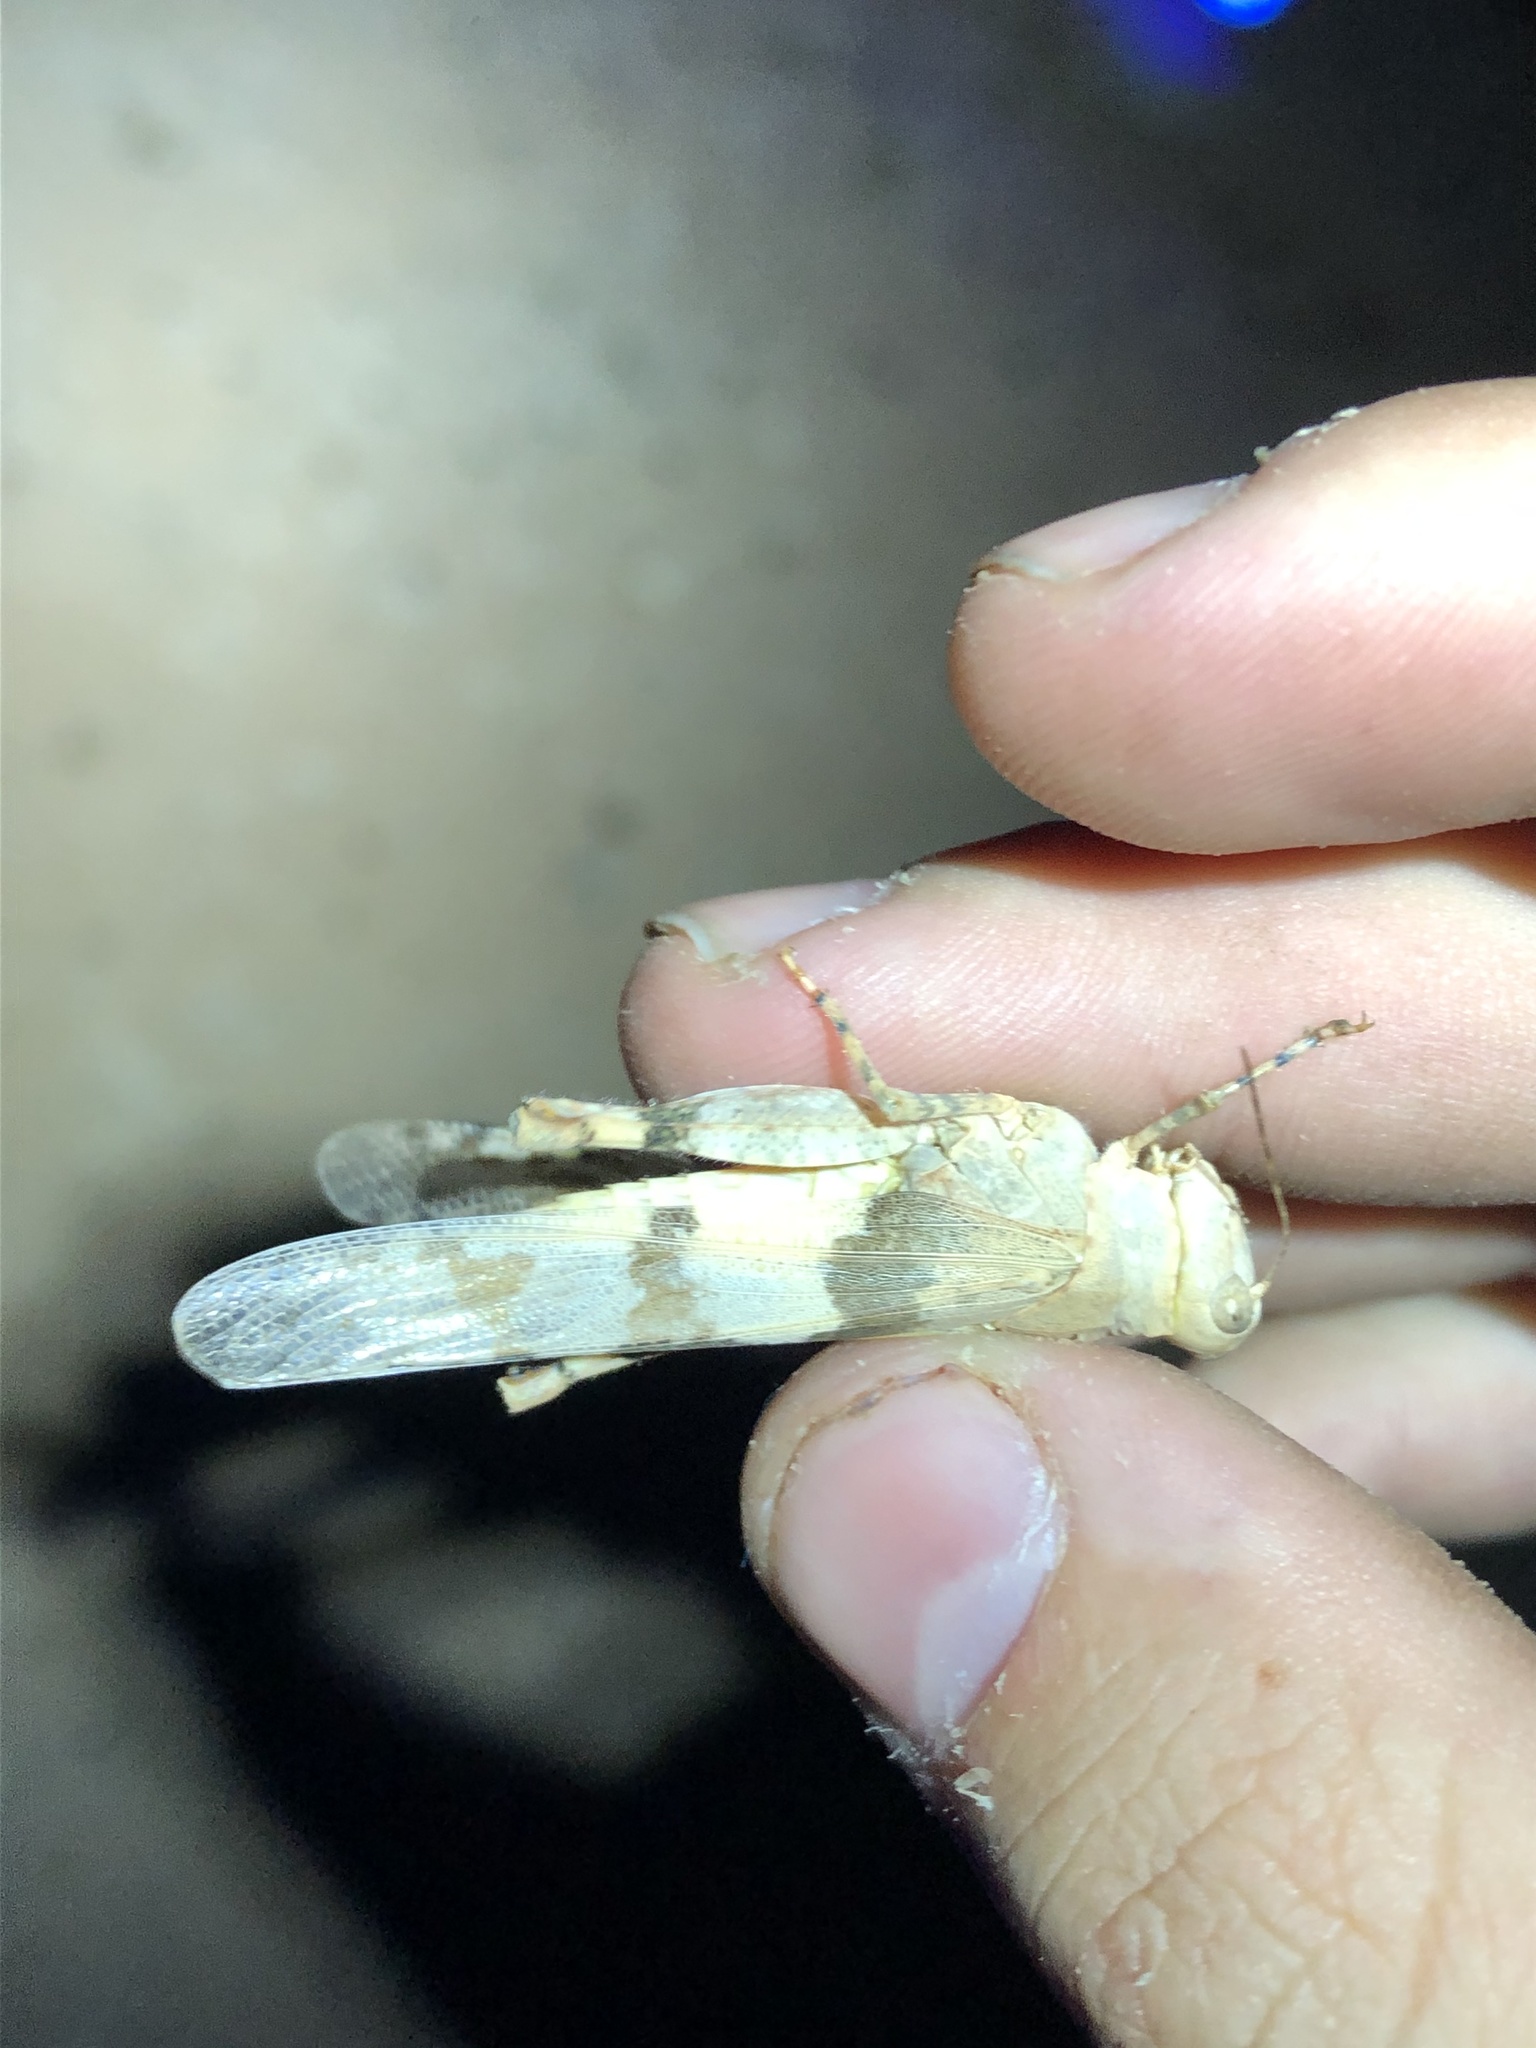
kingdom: Animalia
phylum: Arthropoda
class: Insecta
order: Orthoptera
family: Acrididae
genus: Trimerotropis
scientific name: Trimerotropis californica
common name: California band-winged grasshopper
